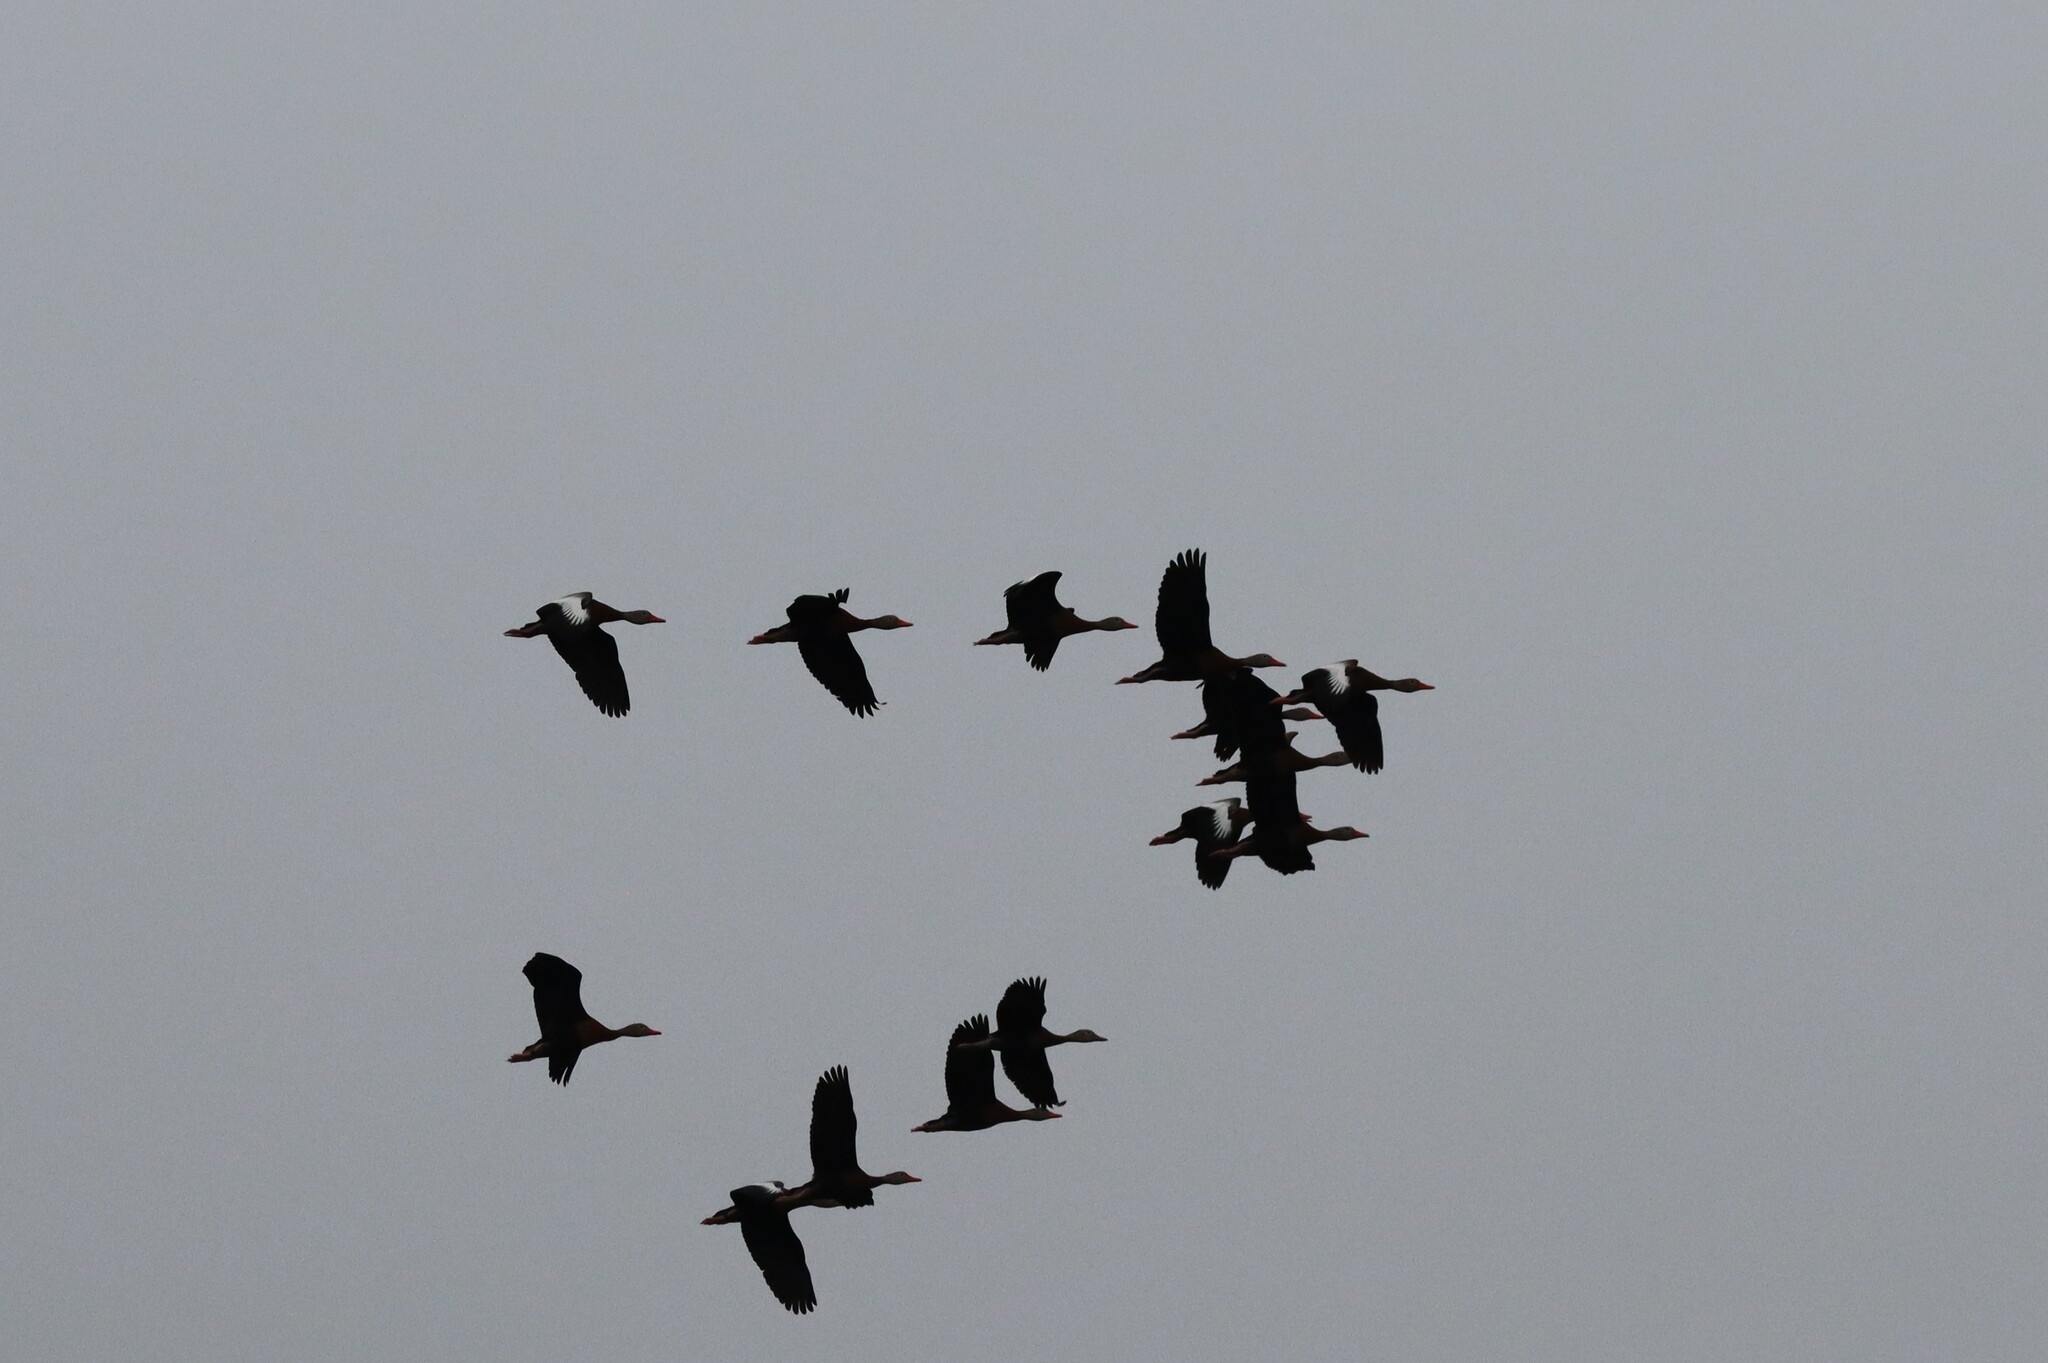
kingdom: Animalia
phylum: Chordata
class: Aves
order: Anseriformes
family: Anatidae
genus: Dendrocygna
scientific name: Dendrocygna autumnalis
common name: Black-bellied whistling duck
